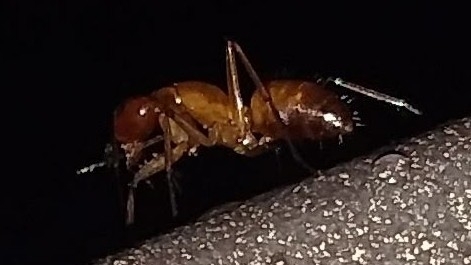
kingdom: Animalia
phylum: Arthropoda
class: Insecta
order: Hymenoptera
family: Formicidae
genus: Camponotus
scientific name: Camponotus castaneus
